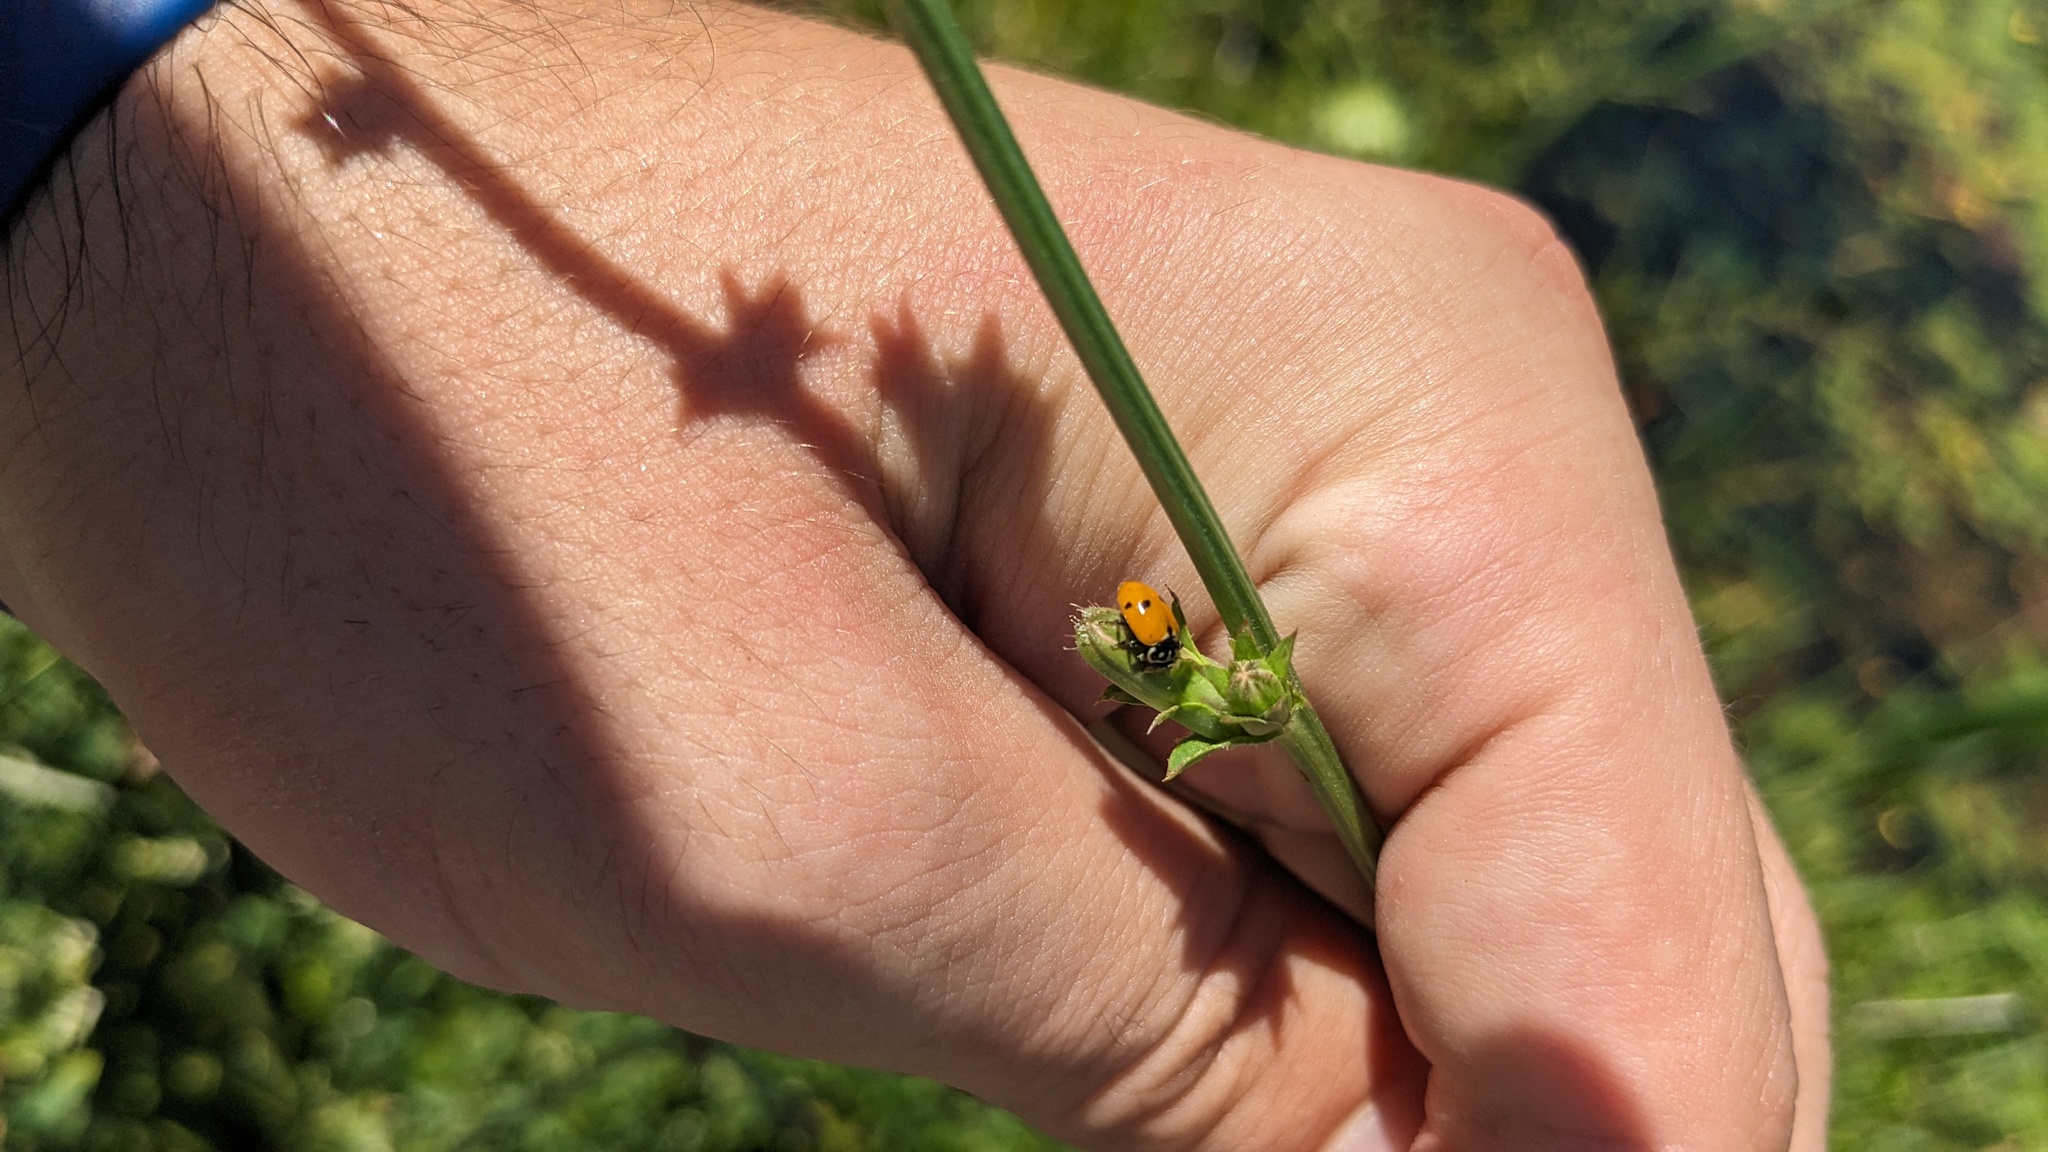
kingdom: Animalia
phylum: Arthropoda
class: Insecta
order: Coleoptera
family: Coccinellidae
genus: Hippodamia
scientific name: Hippodamia variegata
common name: Ladybird beetle
